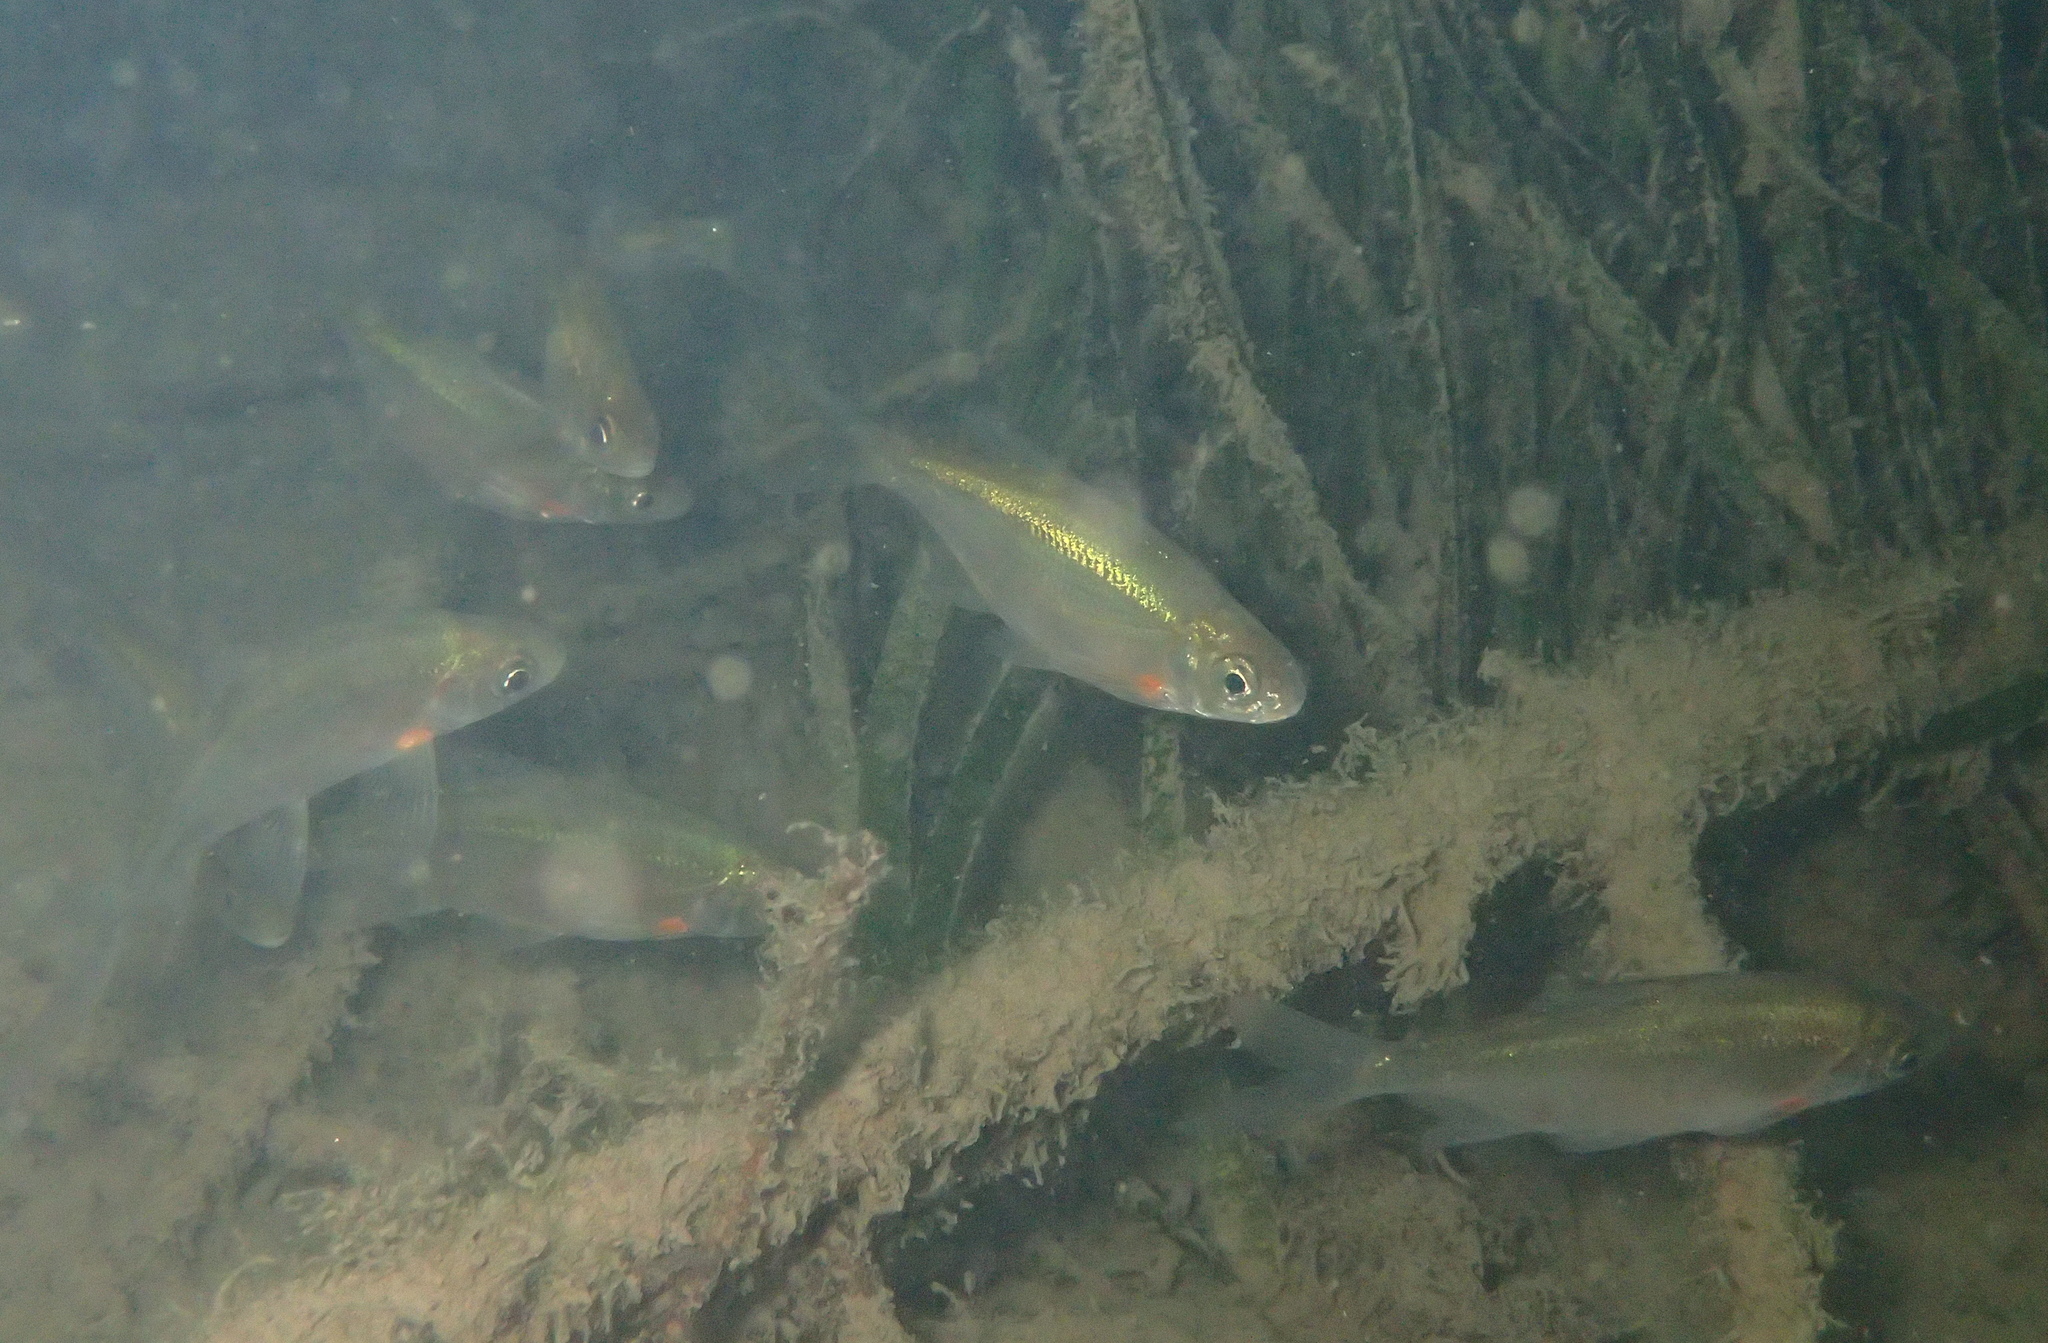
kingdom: Animalia
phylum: Chordata
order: Cypriniformes
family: Cyprinidae
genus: Blicca
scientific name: Blicca bjoerkna
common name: White bream
